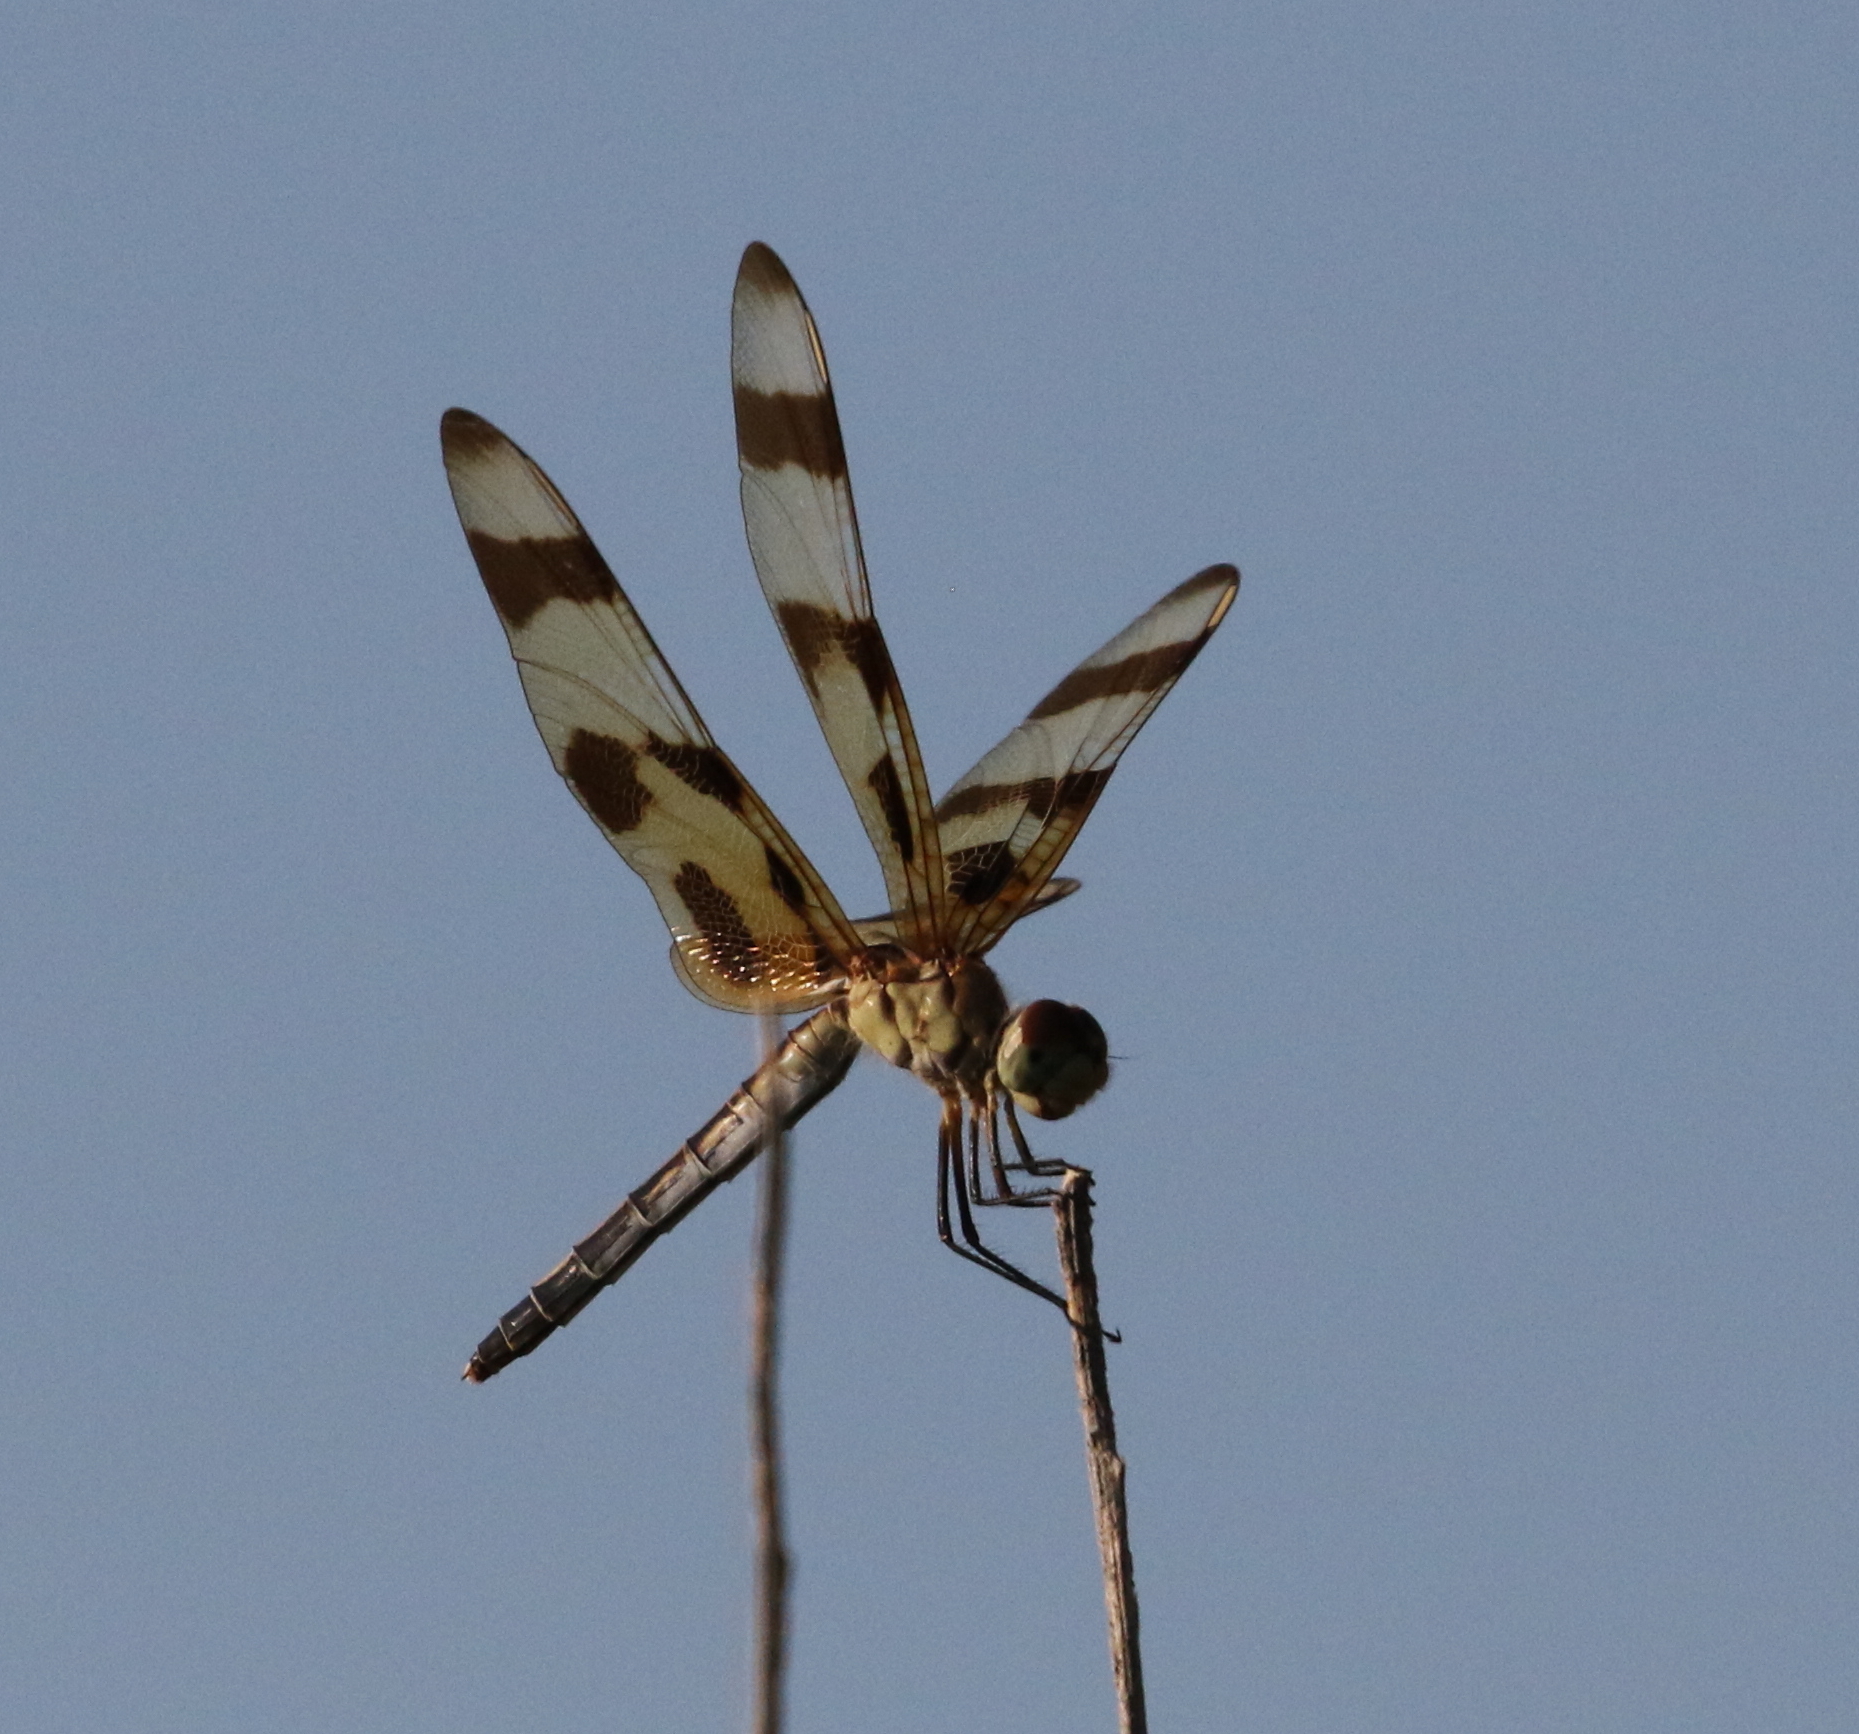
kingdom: Animalia
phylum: Arthropoda
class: Insecta
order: Odonata
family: Libellulidae
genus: Celithemis
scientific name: Celithemis eponina
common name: Halloween pennant
